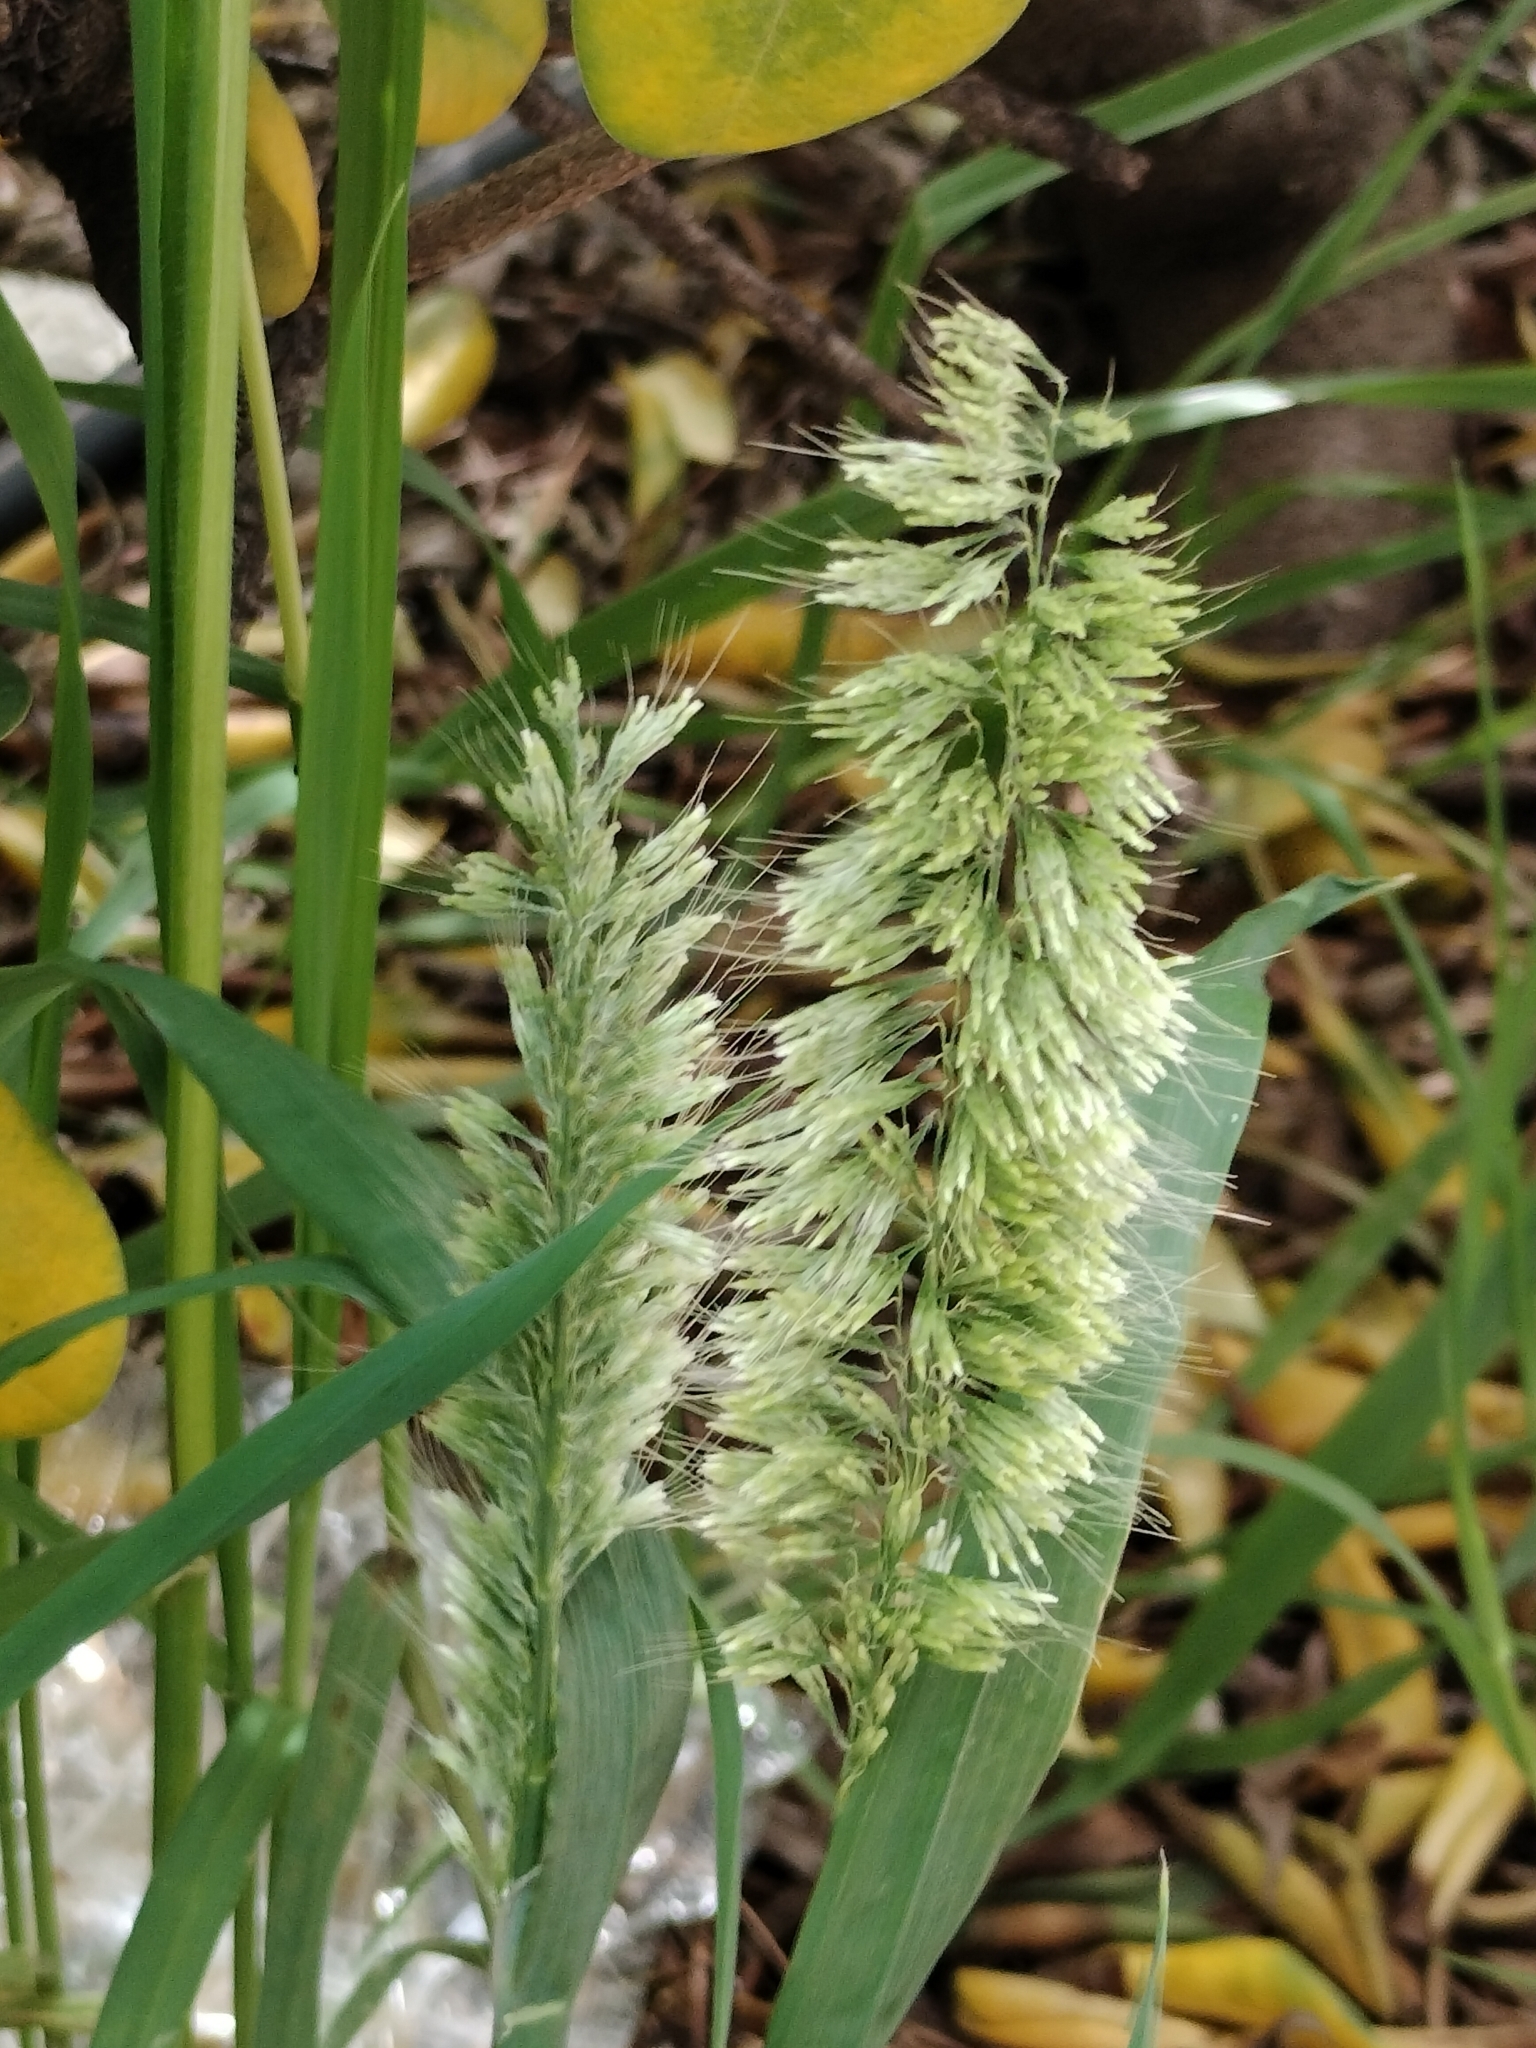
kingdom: Plantae
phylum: Tracheophyta
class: Liliopsida
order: Poales
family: Poaceae
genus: Lamarckia
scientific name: Lamarckia aurea
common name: Golden dog's-tail
